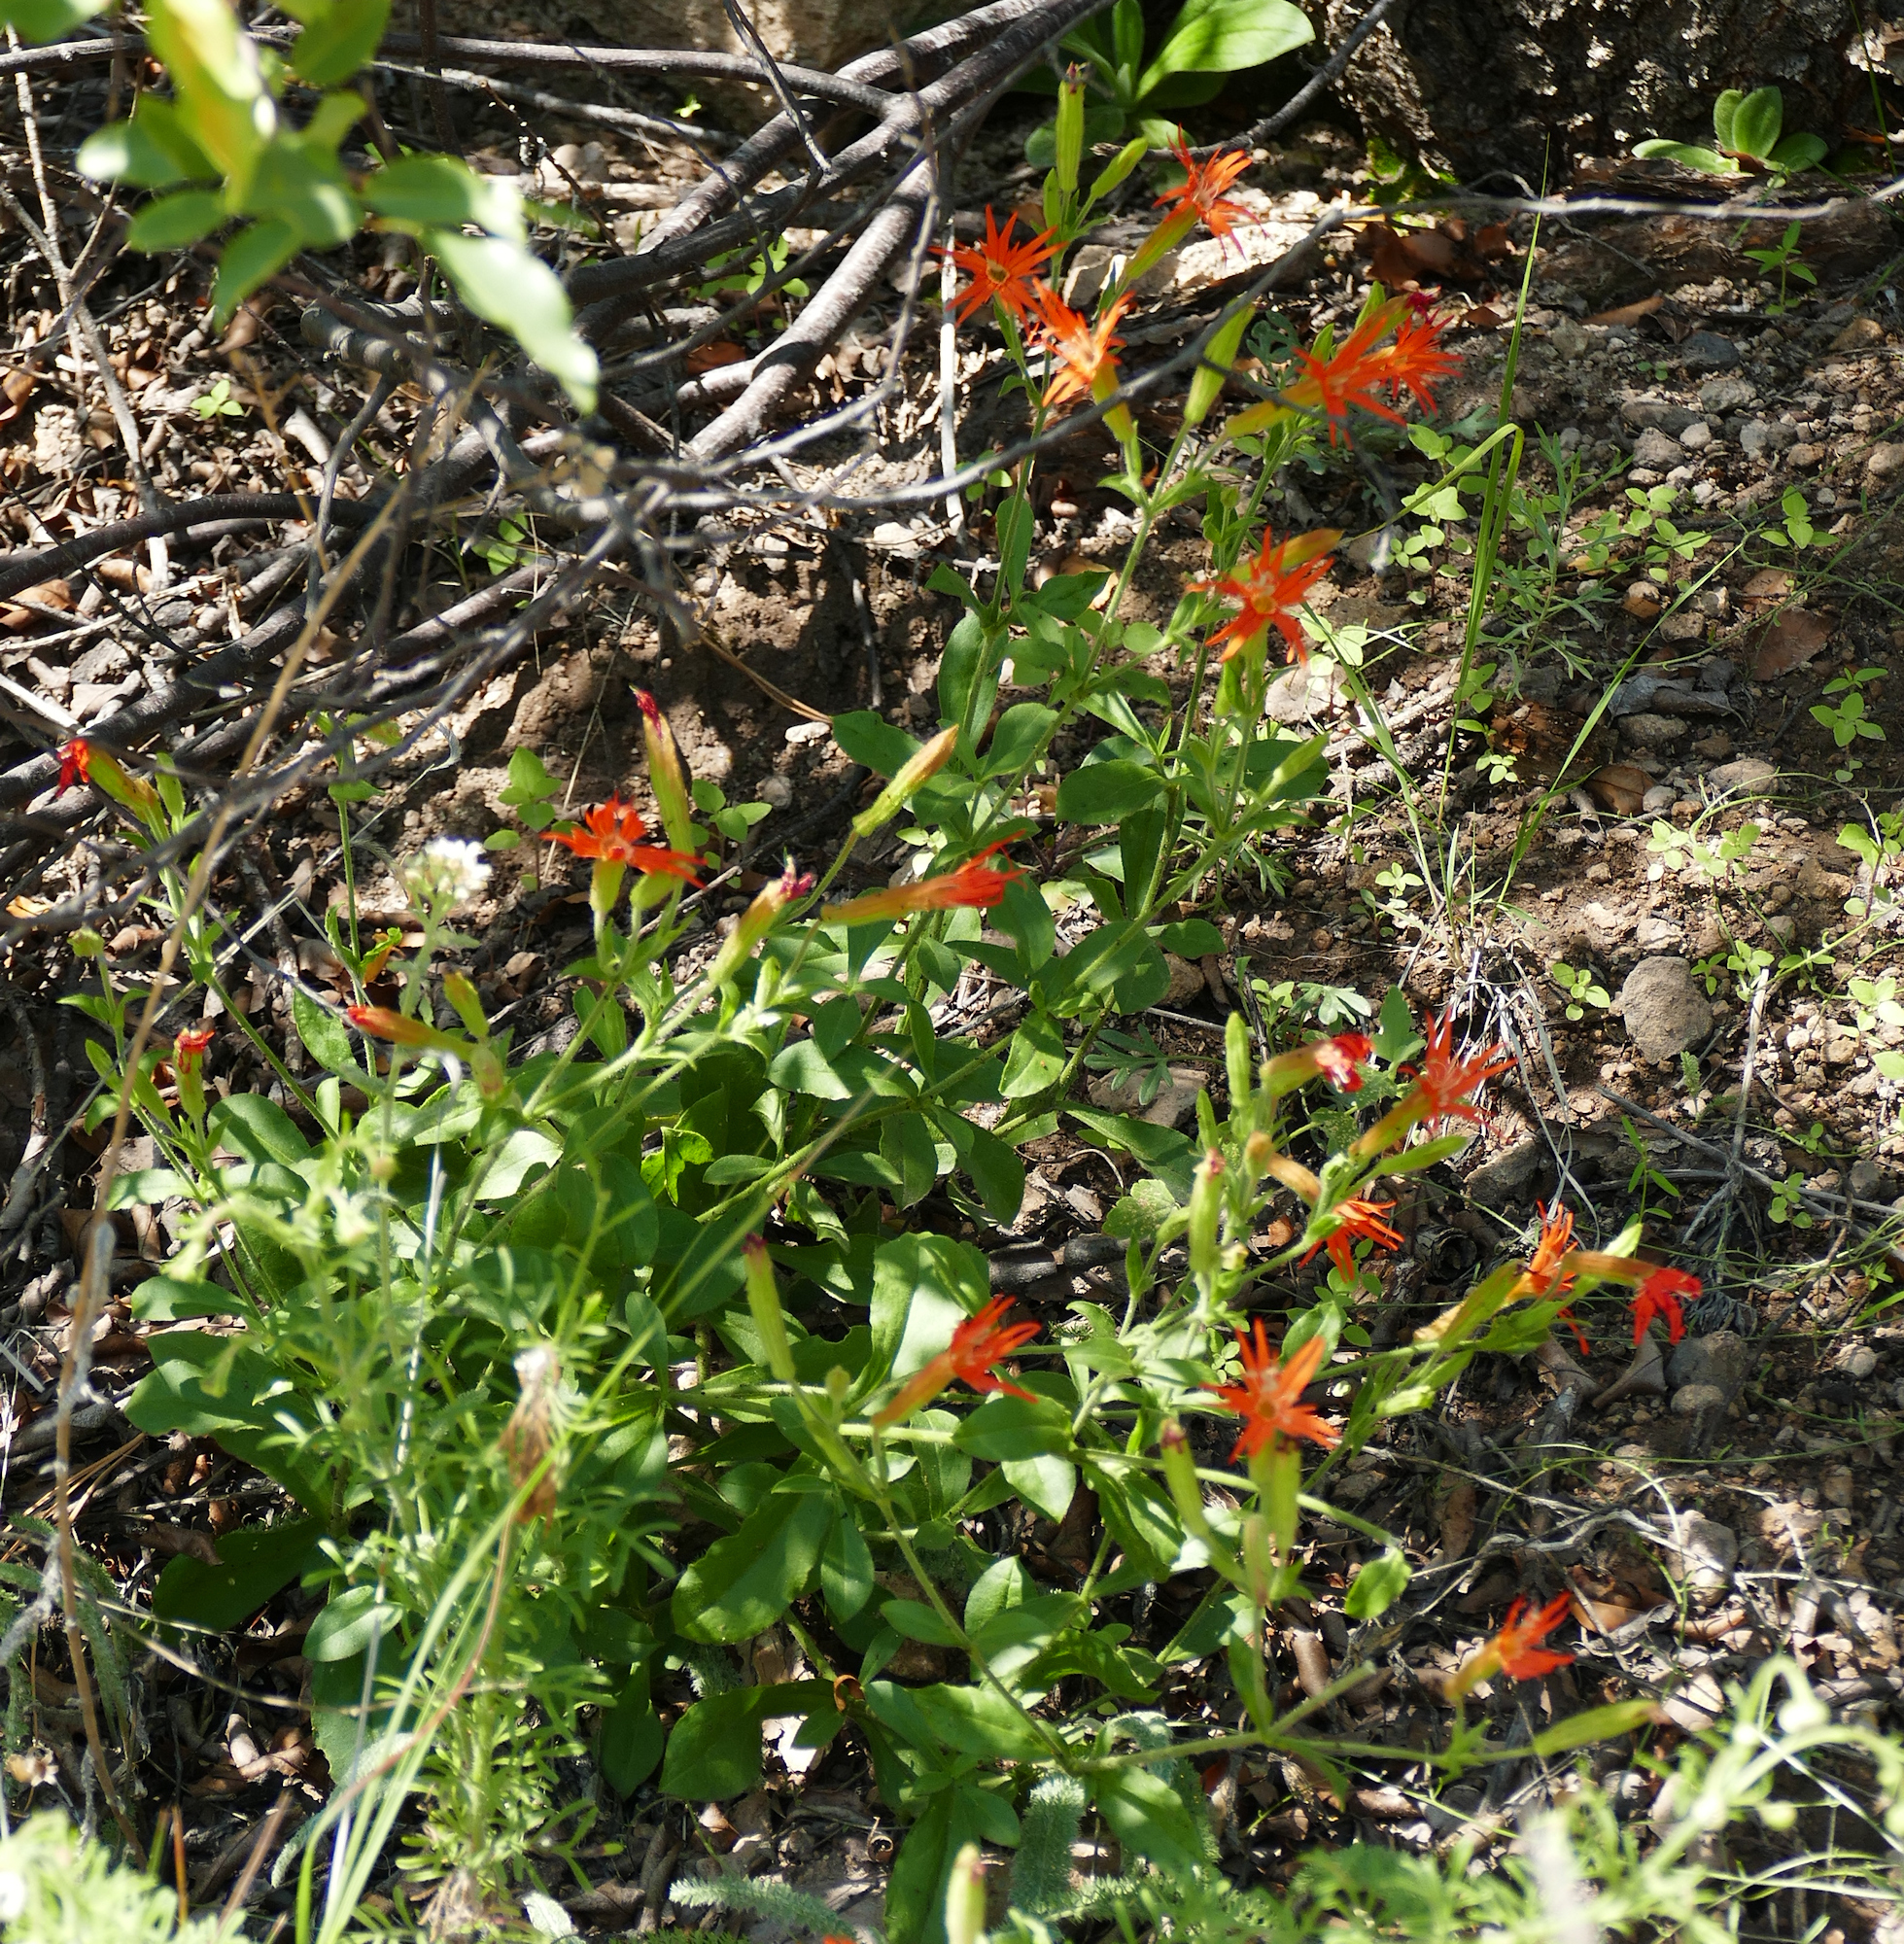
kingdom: Plantae
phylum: Tracheophyta
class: Magnoliopsida
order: Caryophyllales
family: Caryophyllaceae
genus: Silene
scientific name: Silene laciniata
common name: Indian-pink
